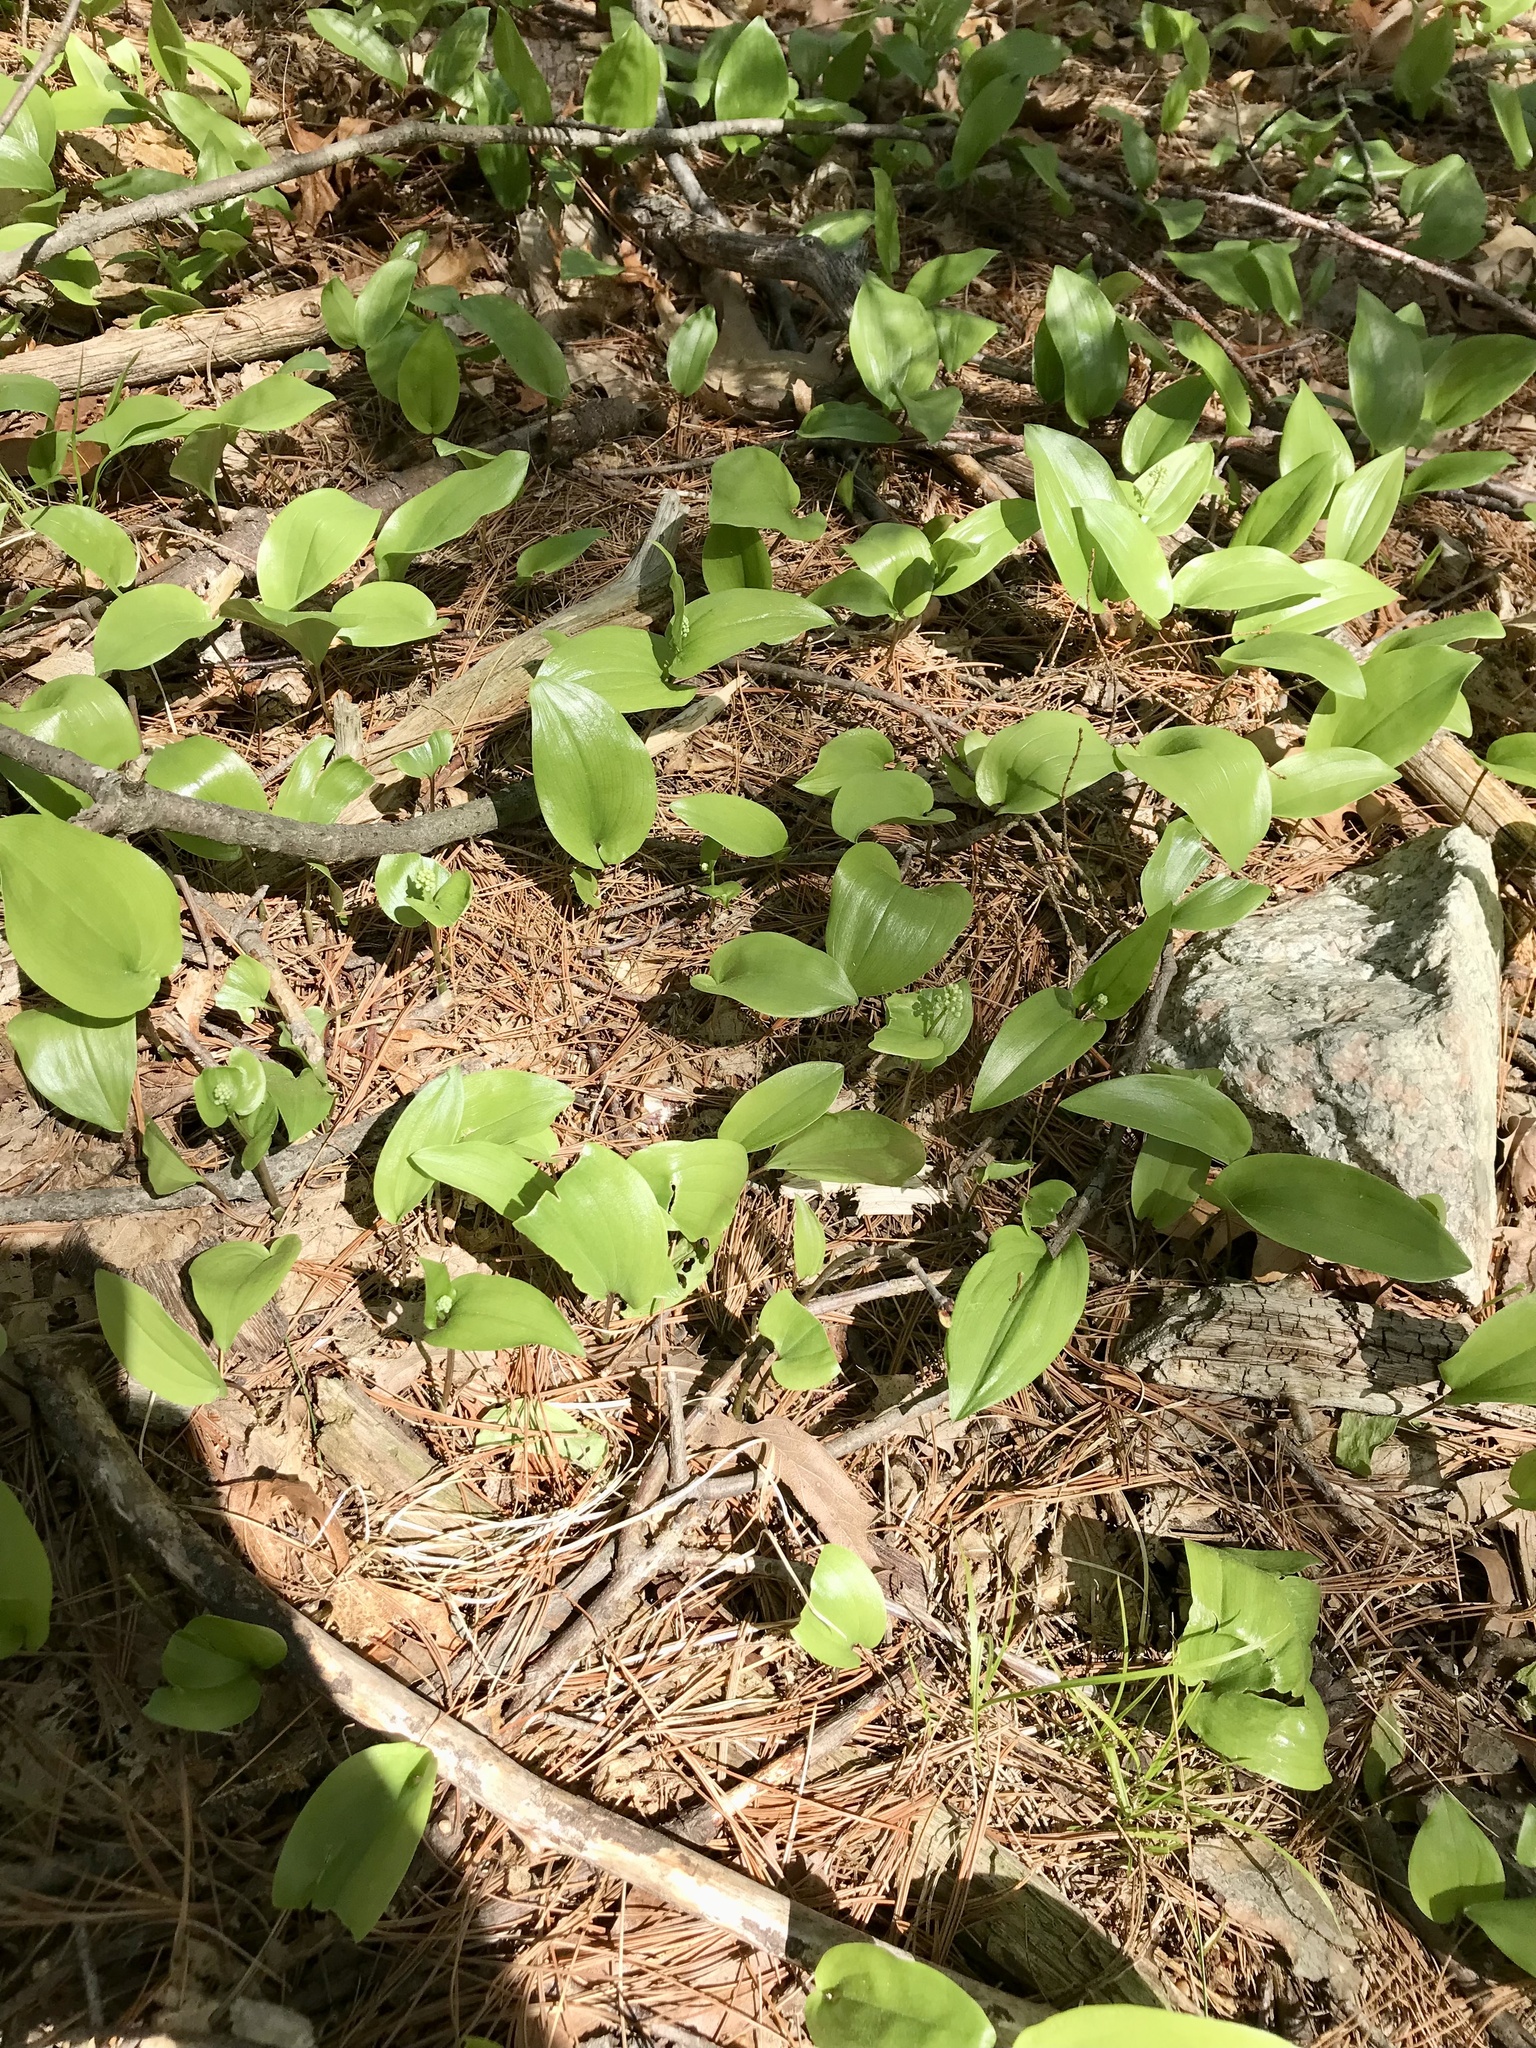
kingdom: Plantae
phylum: Tracheophyta
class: Liliopsida
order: Asparagales
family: Asparagaceae
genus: Maianthemum
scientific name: Maianthemum canadense
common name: False lily-of-the-valley
